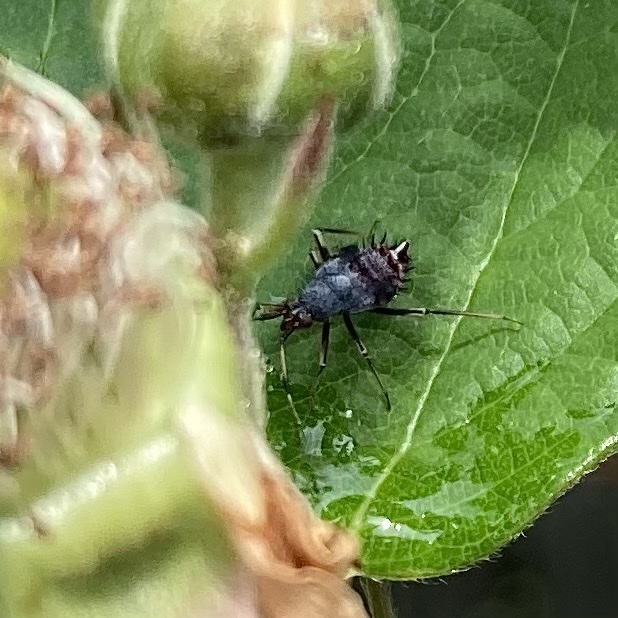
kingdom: Animalia
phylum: Arthropoda
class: Insecta
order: Hemiptera
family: Miridae
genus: Deraeocoris
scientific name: Deraeocoris ruber
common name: Plant bug
